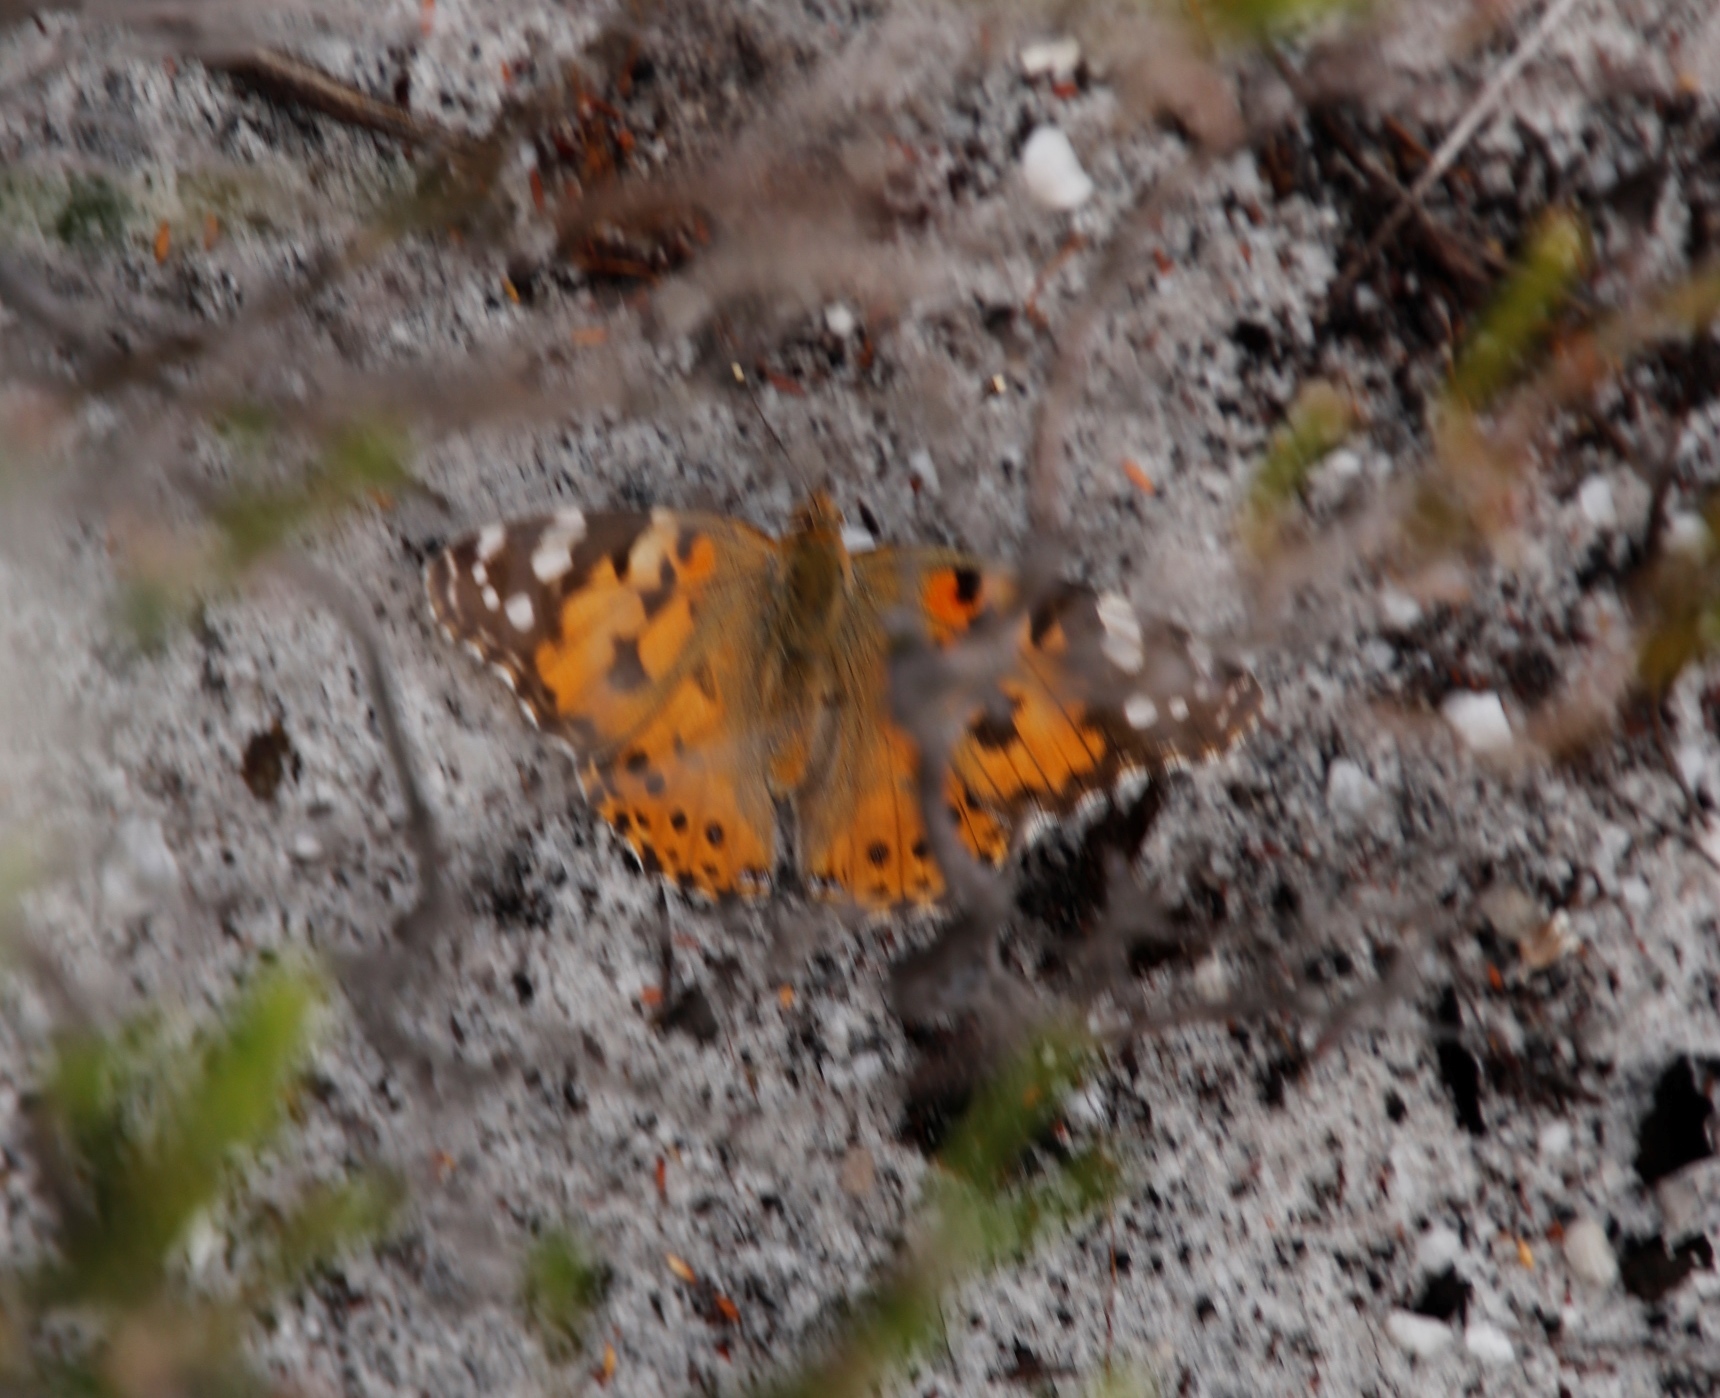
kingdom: Animalia
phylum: Arthropoda
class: Insecta
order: Lepidoptera
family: Nymphalidae
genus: Vanessa
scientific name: Vanessa cardui
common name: Painted lady
